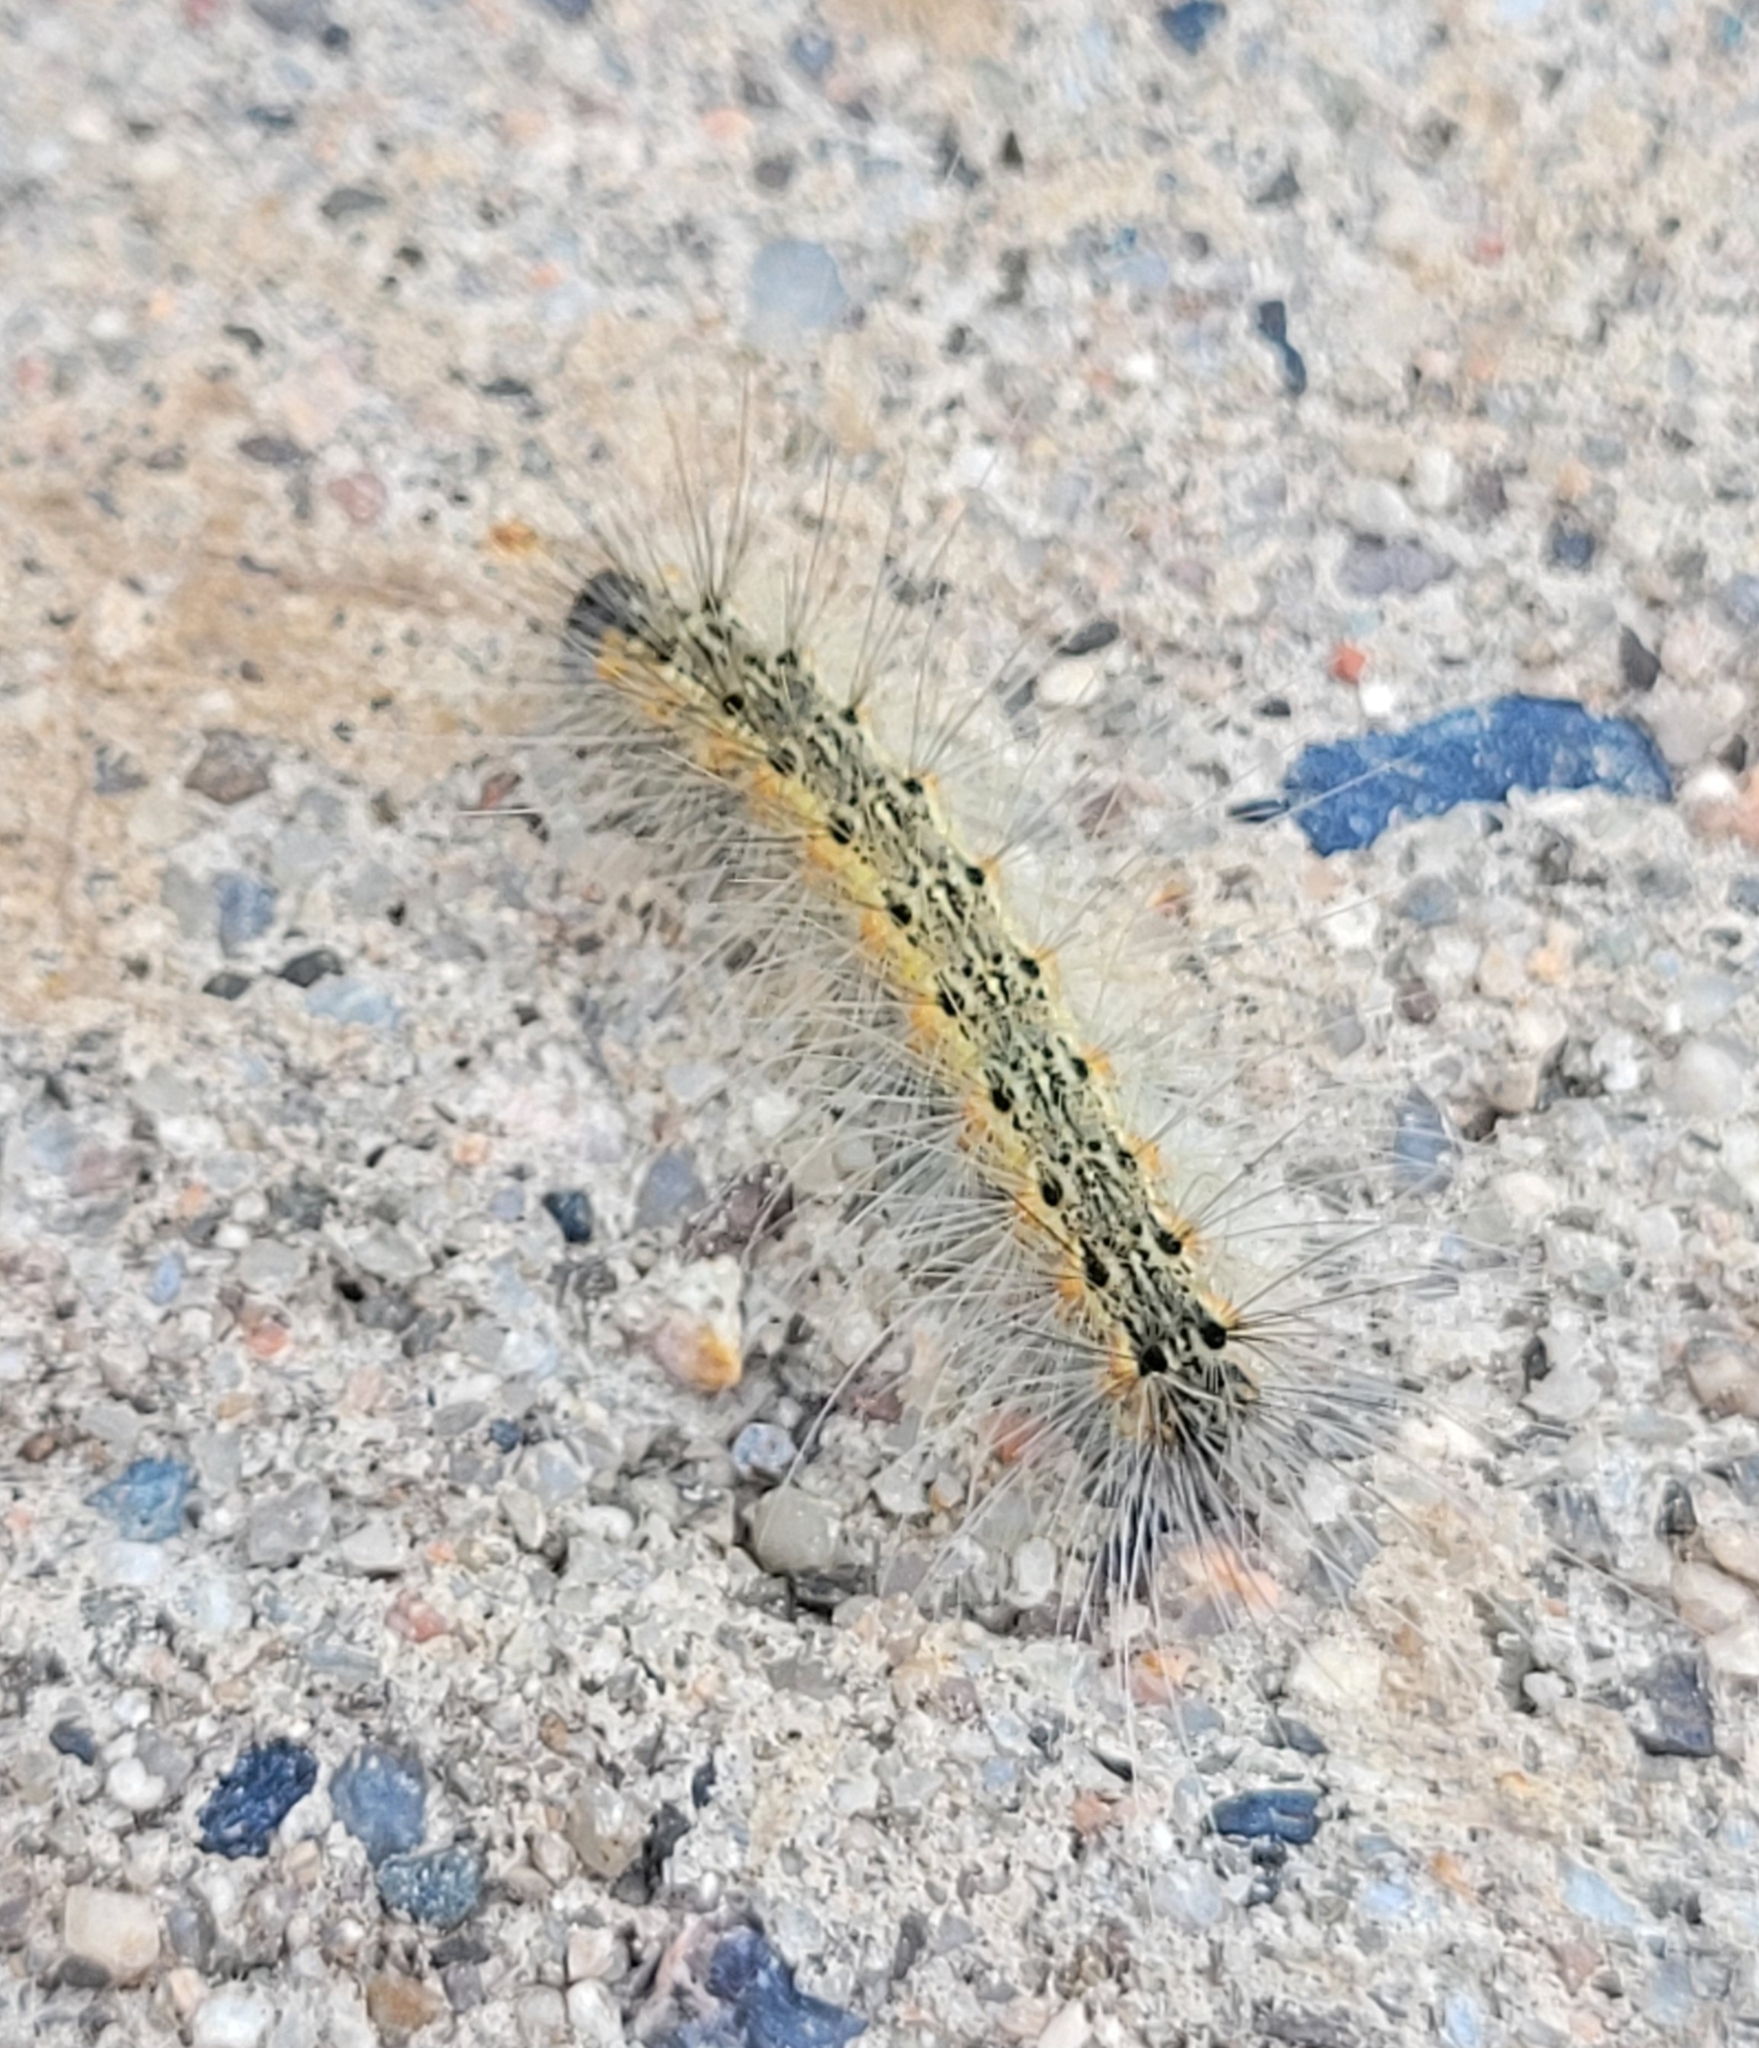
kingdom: Animalia
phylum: Arthropoda
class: Insecta
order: Lepidoptera
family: Erebidae
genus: Hyphantria
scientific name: Hyphantria cunea
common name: American white moth
